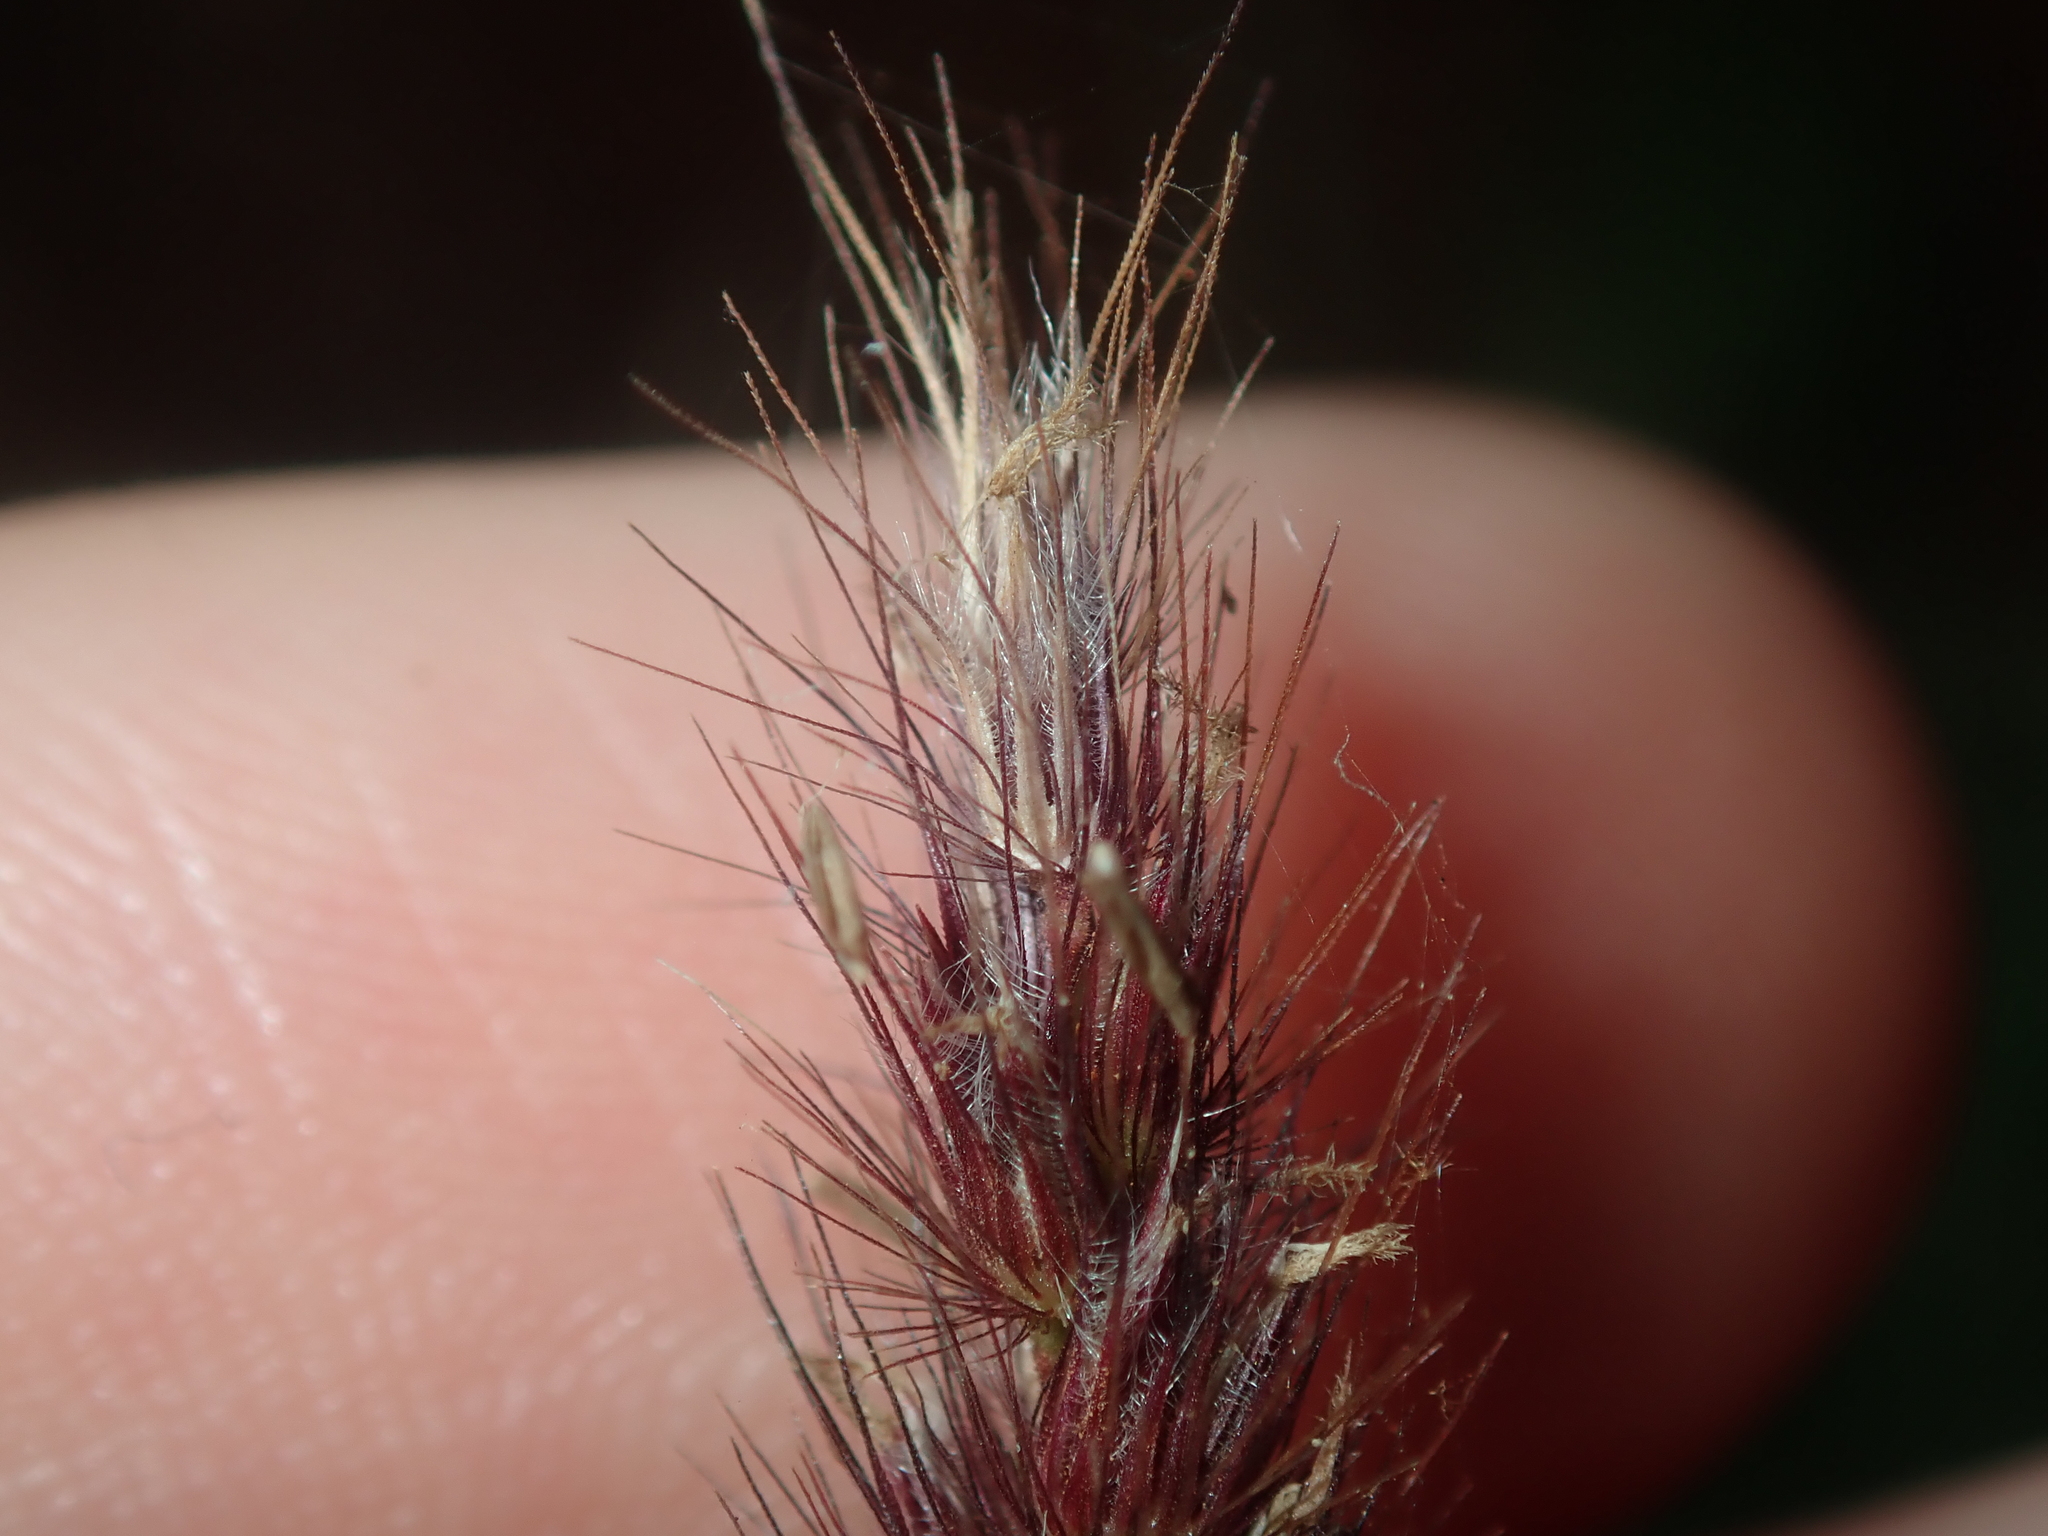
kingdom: Plantae
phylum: Tracheophyta
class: Liliopsida
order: Poales
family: Poaceae
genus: Cenchrus
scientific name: Cenchrus ciliaris
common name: Buffelgrass
